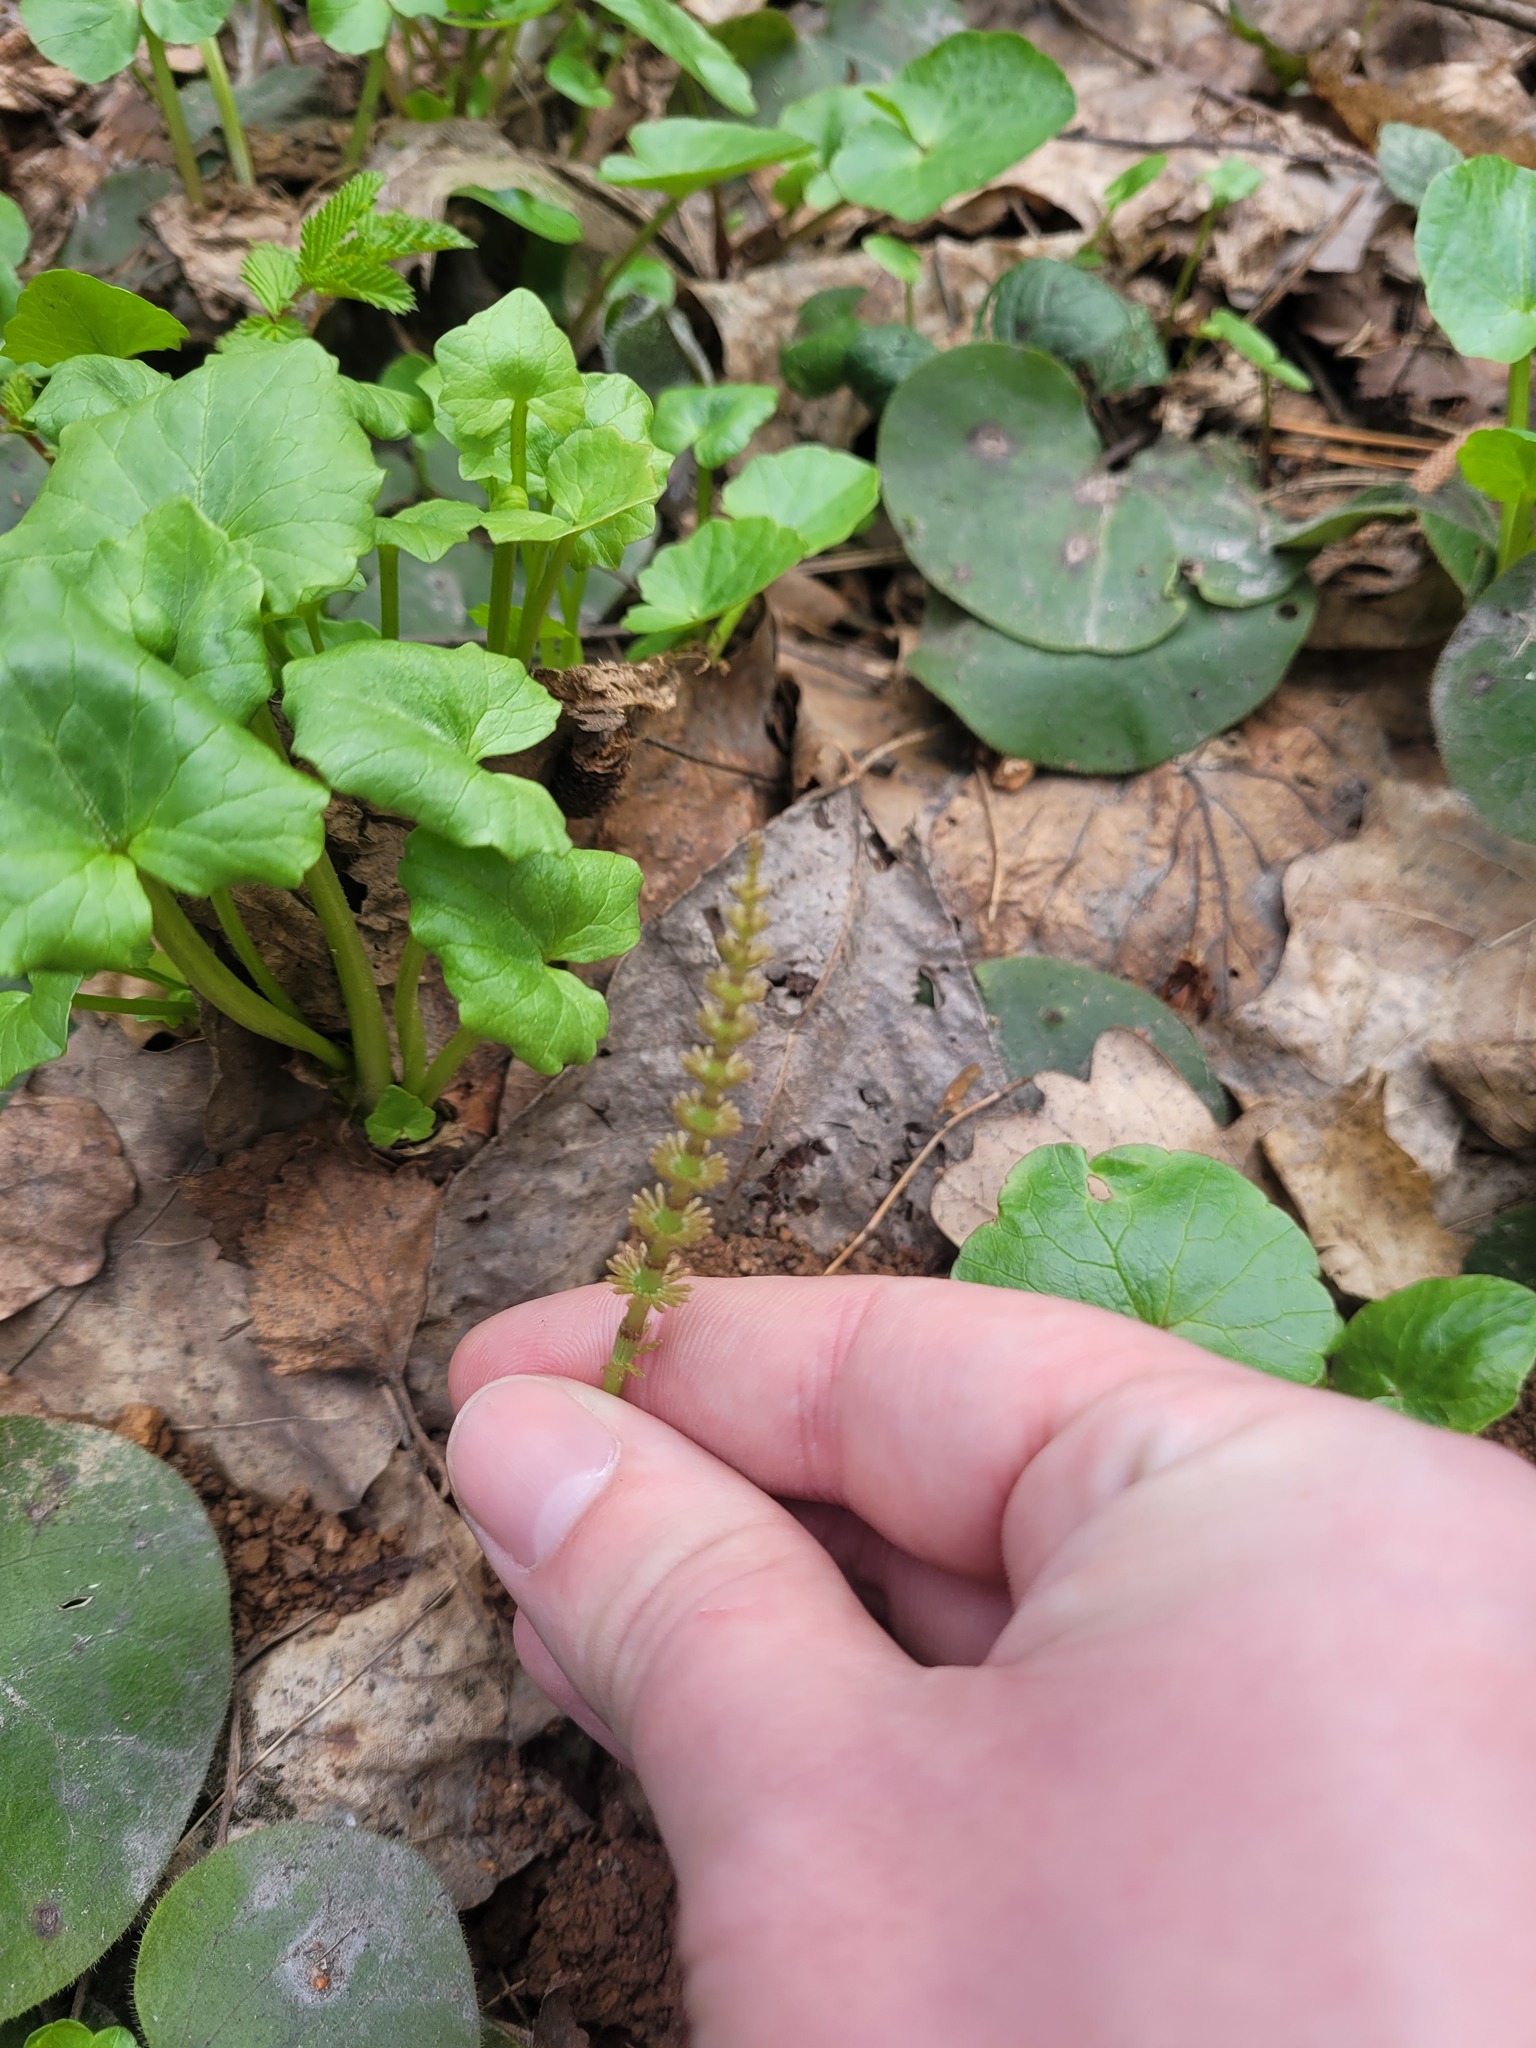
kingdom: Plantae
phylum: Tracheophyta
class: Polypodiopsida
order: Equisetales
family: Equisetaceae
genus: Equisetum
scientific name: Equisetum pratense
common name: Meadow horsetail
